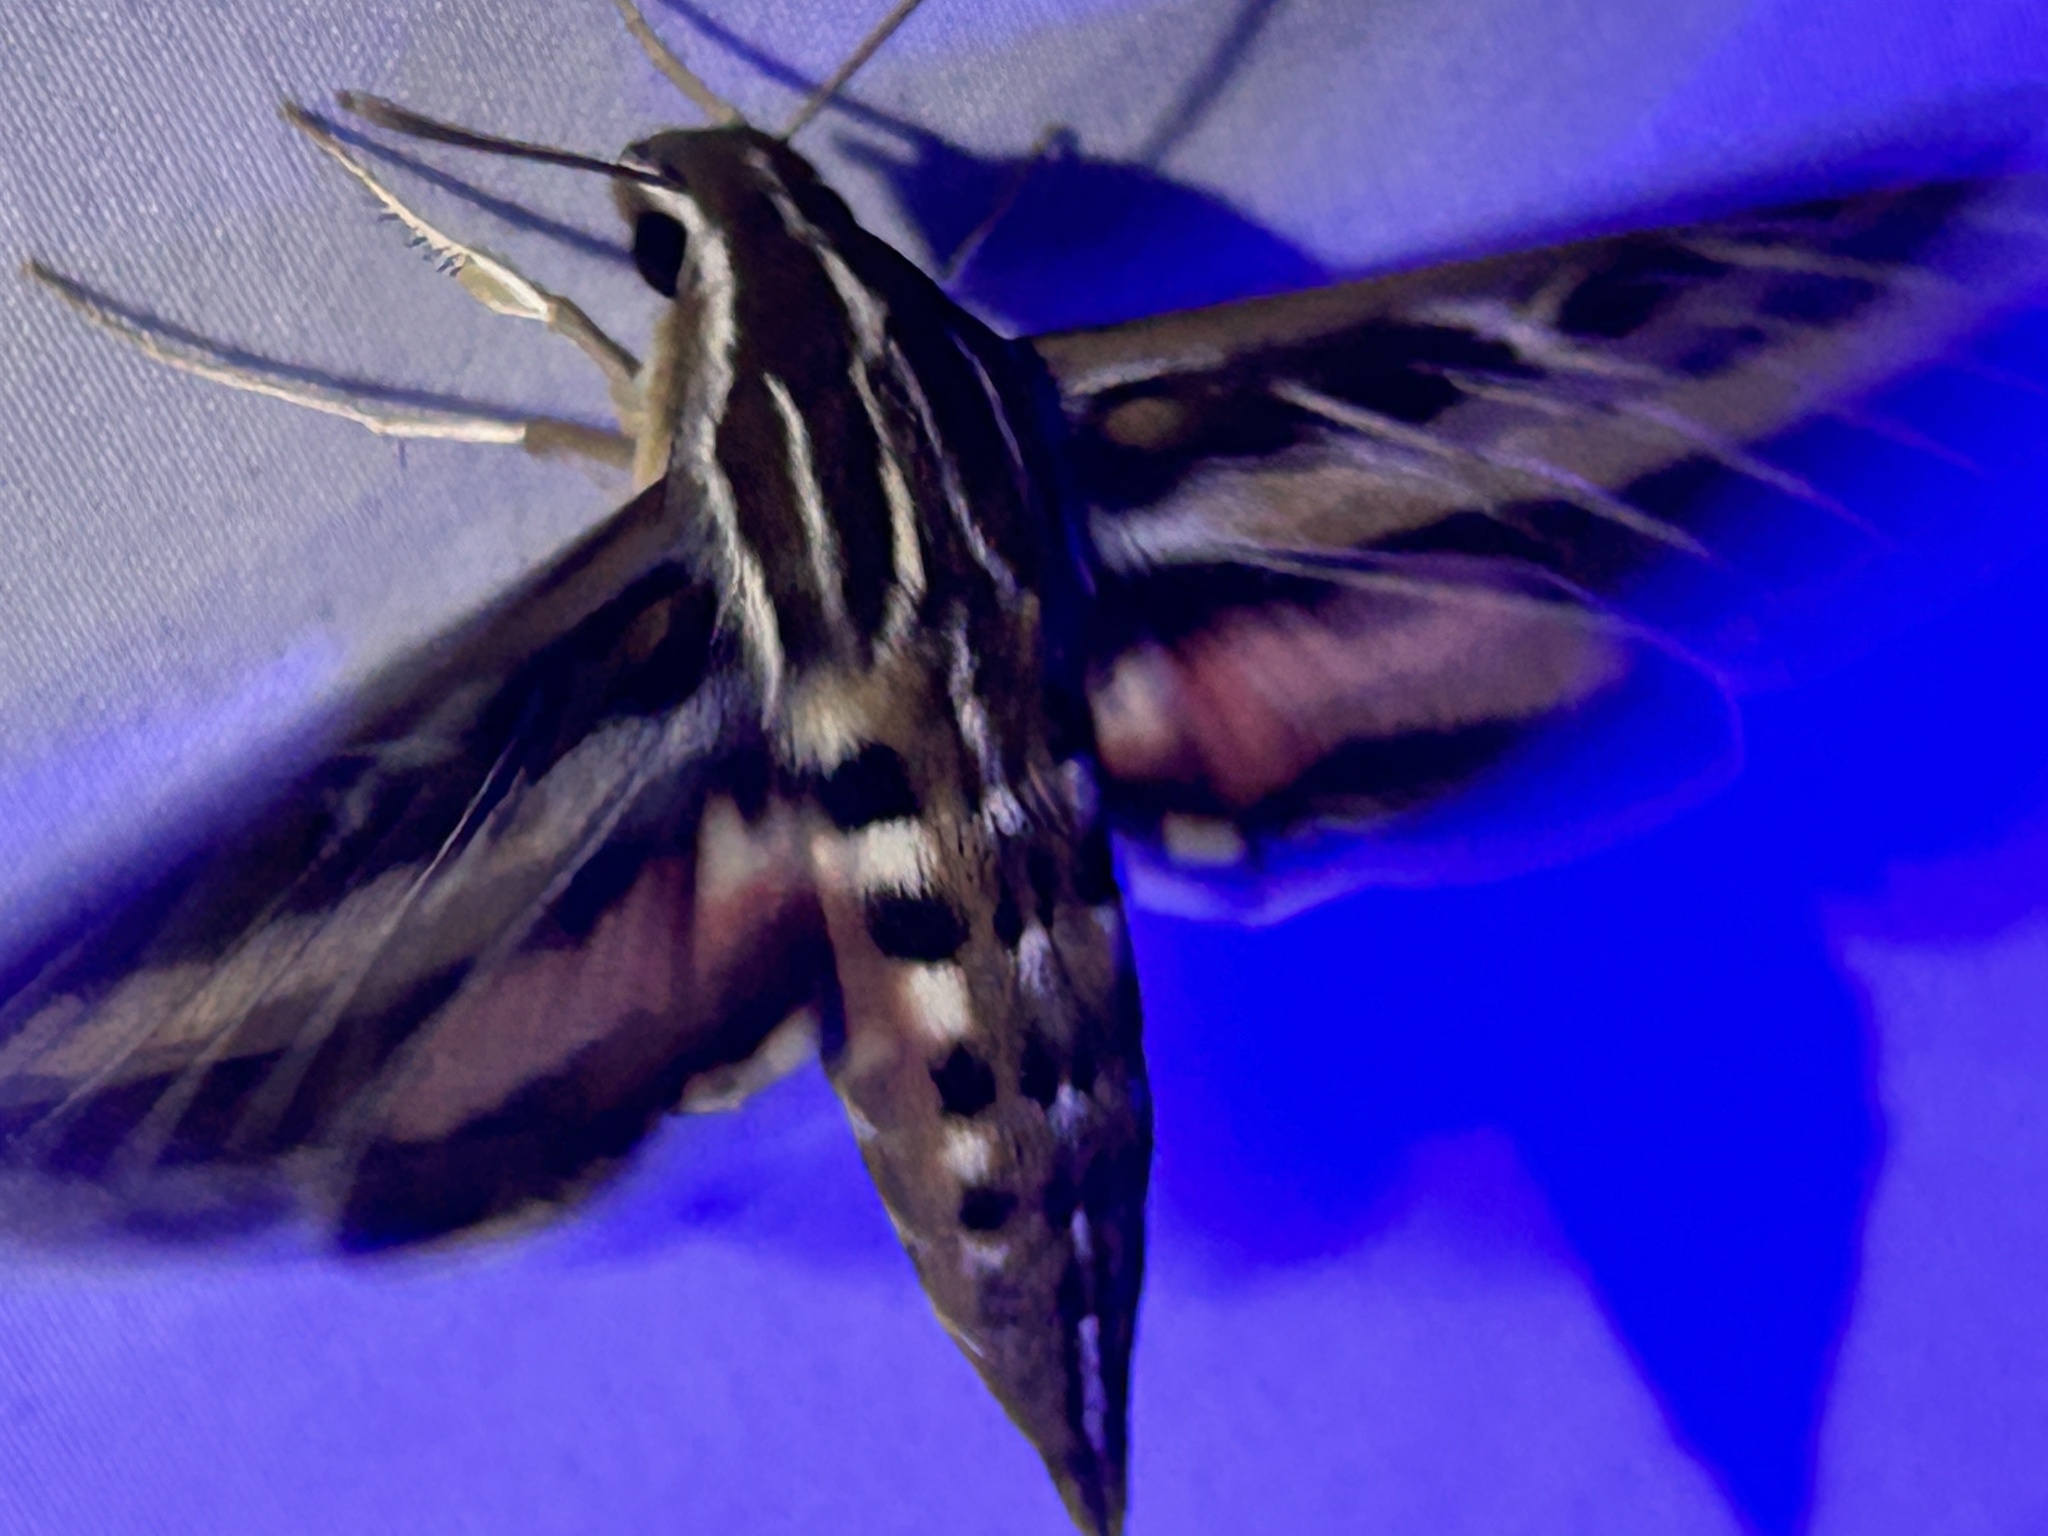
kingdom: Animalia
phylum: Arthropoda
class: Insecta
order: Lepidoptera
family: Sphingidae
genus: Hyles
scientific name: Hyles lineata
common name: White-lined sphinx
